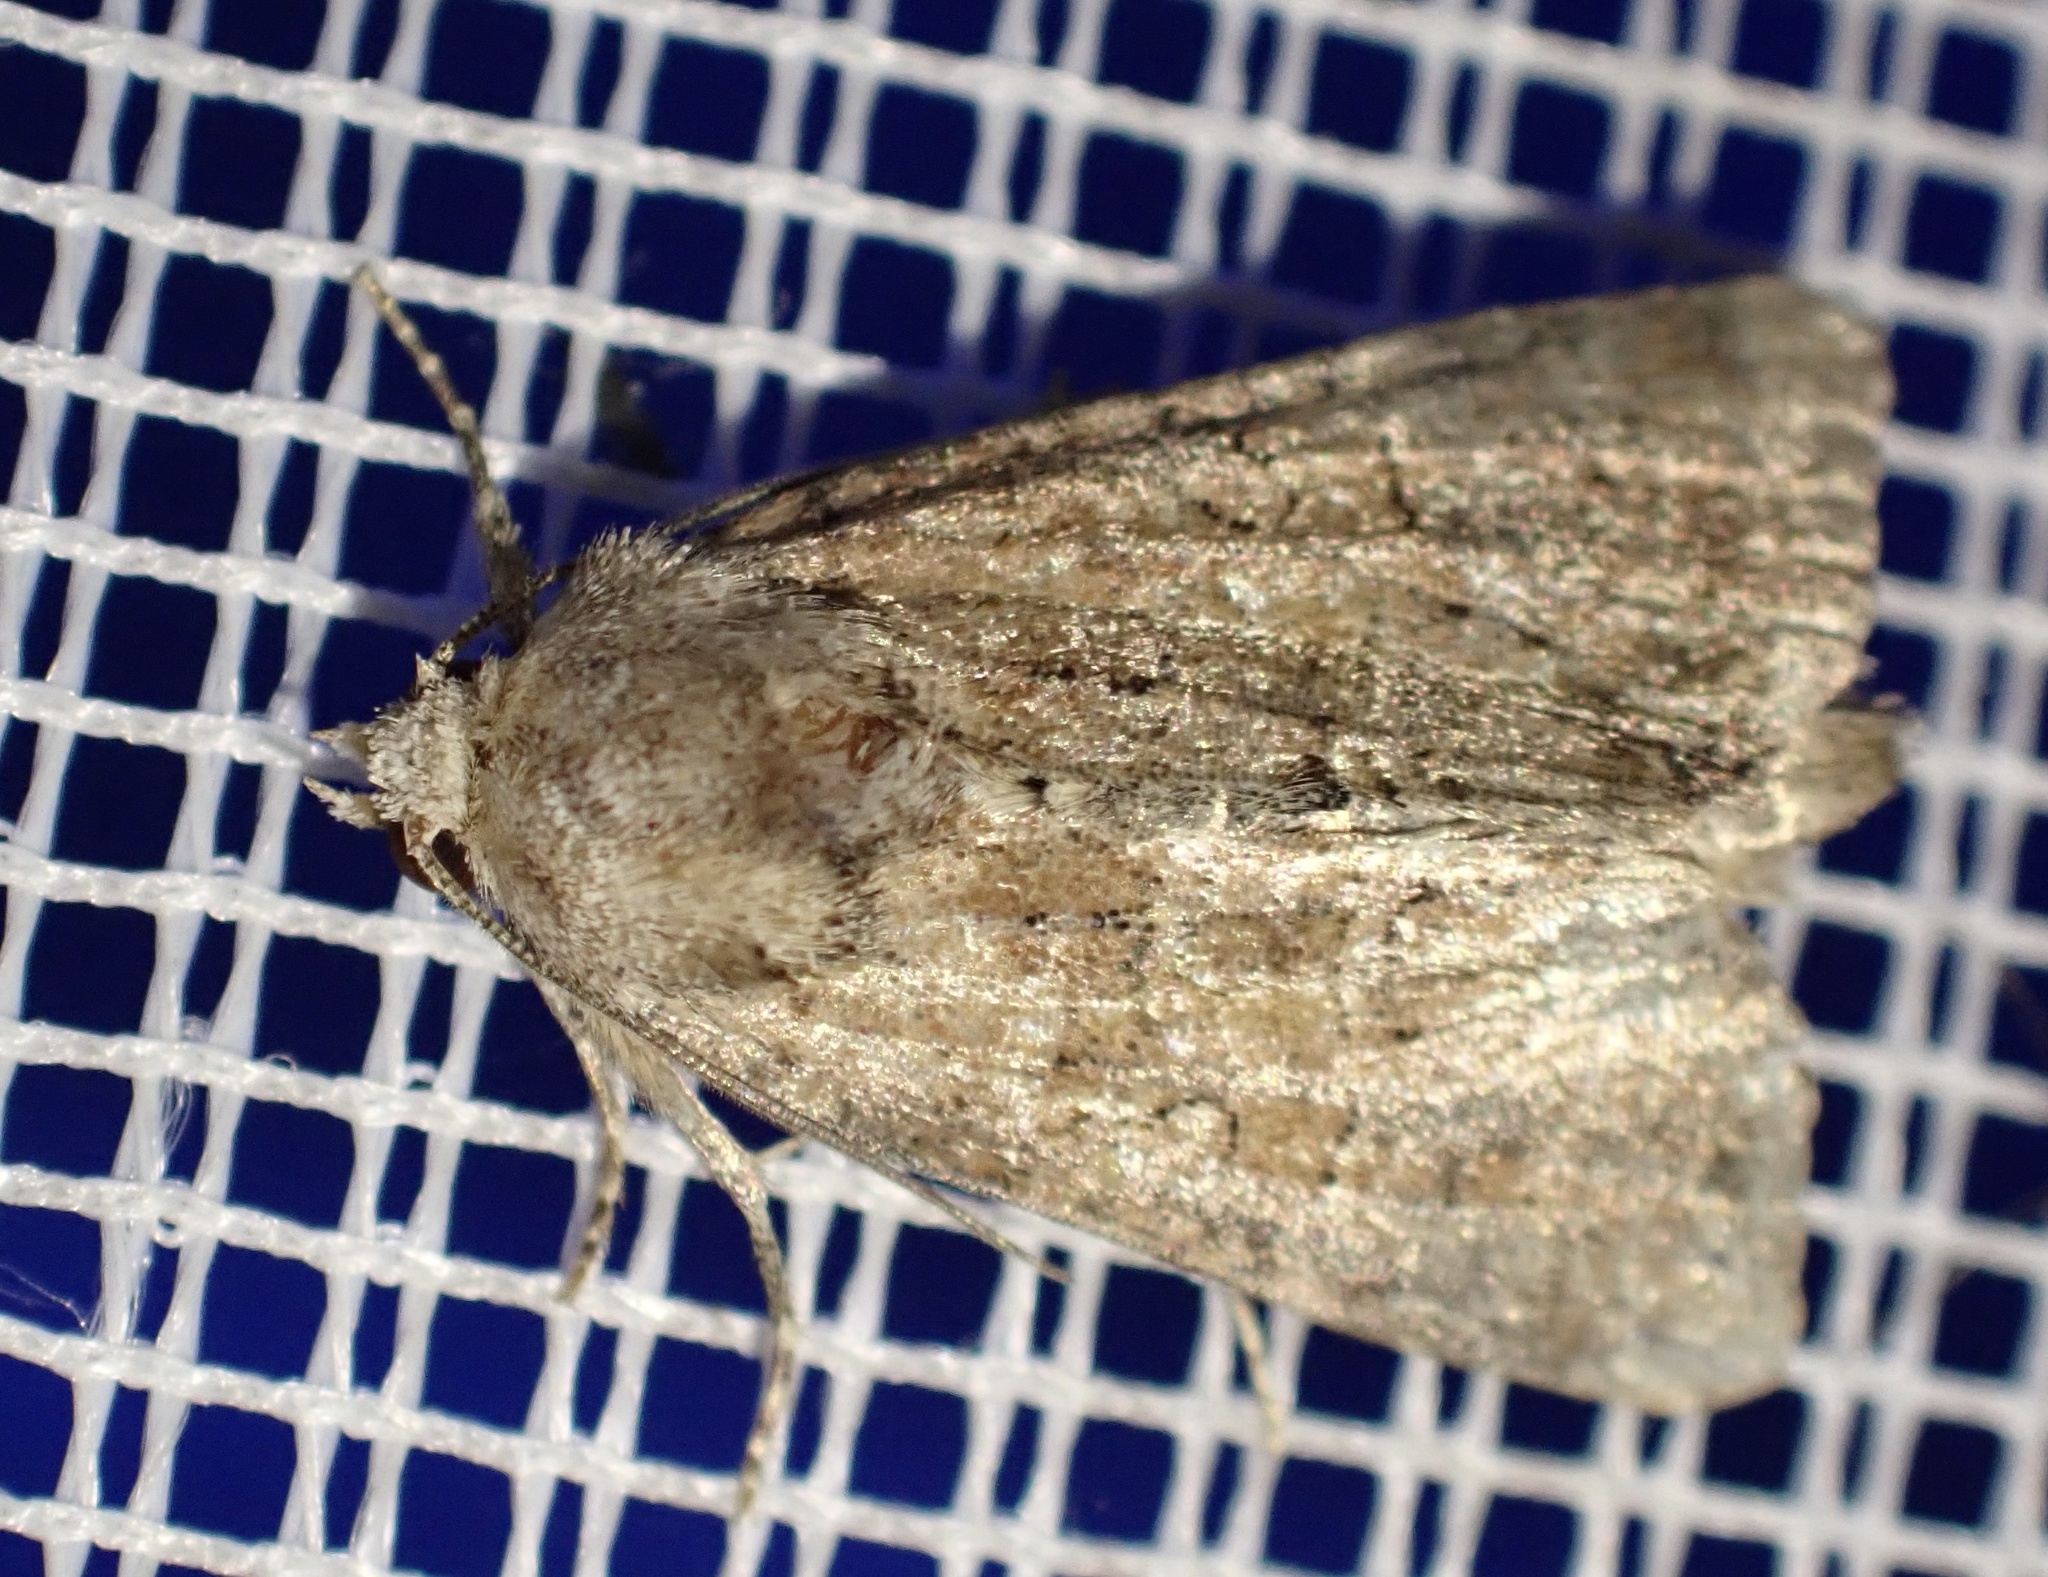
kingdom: Animalia
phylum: Arthropoda
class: Insecta
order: Lepidoptera
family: Noctuidae
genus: Mesoligia
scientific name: Mesoligia furuncula
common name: Cloaked minor
